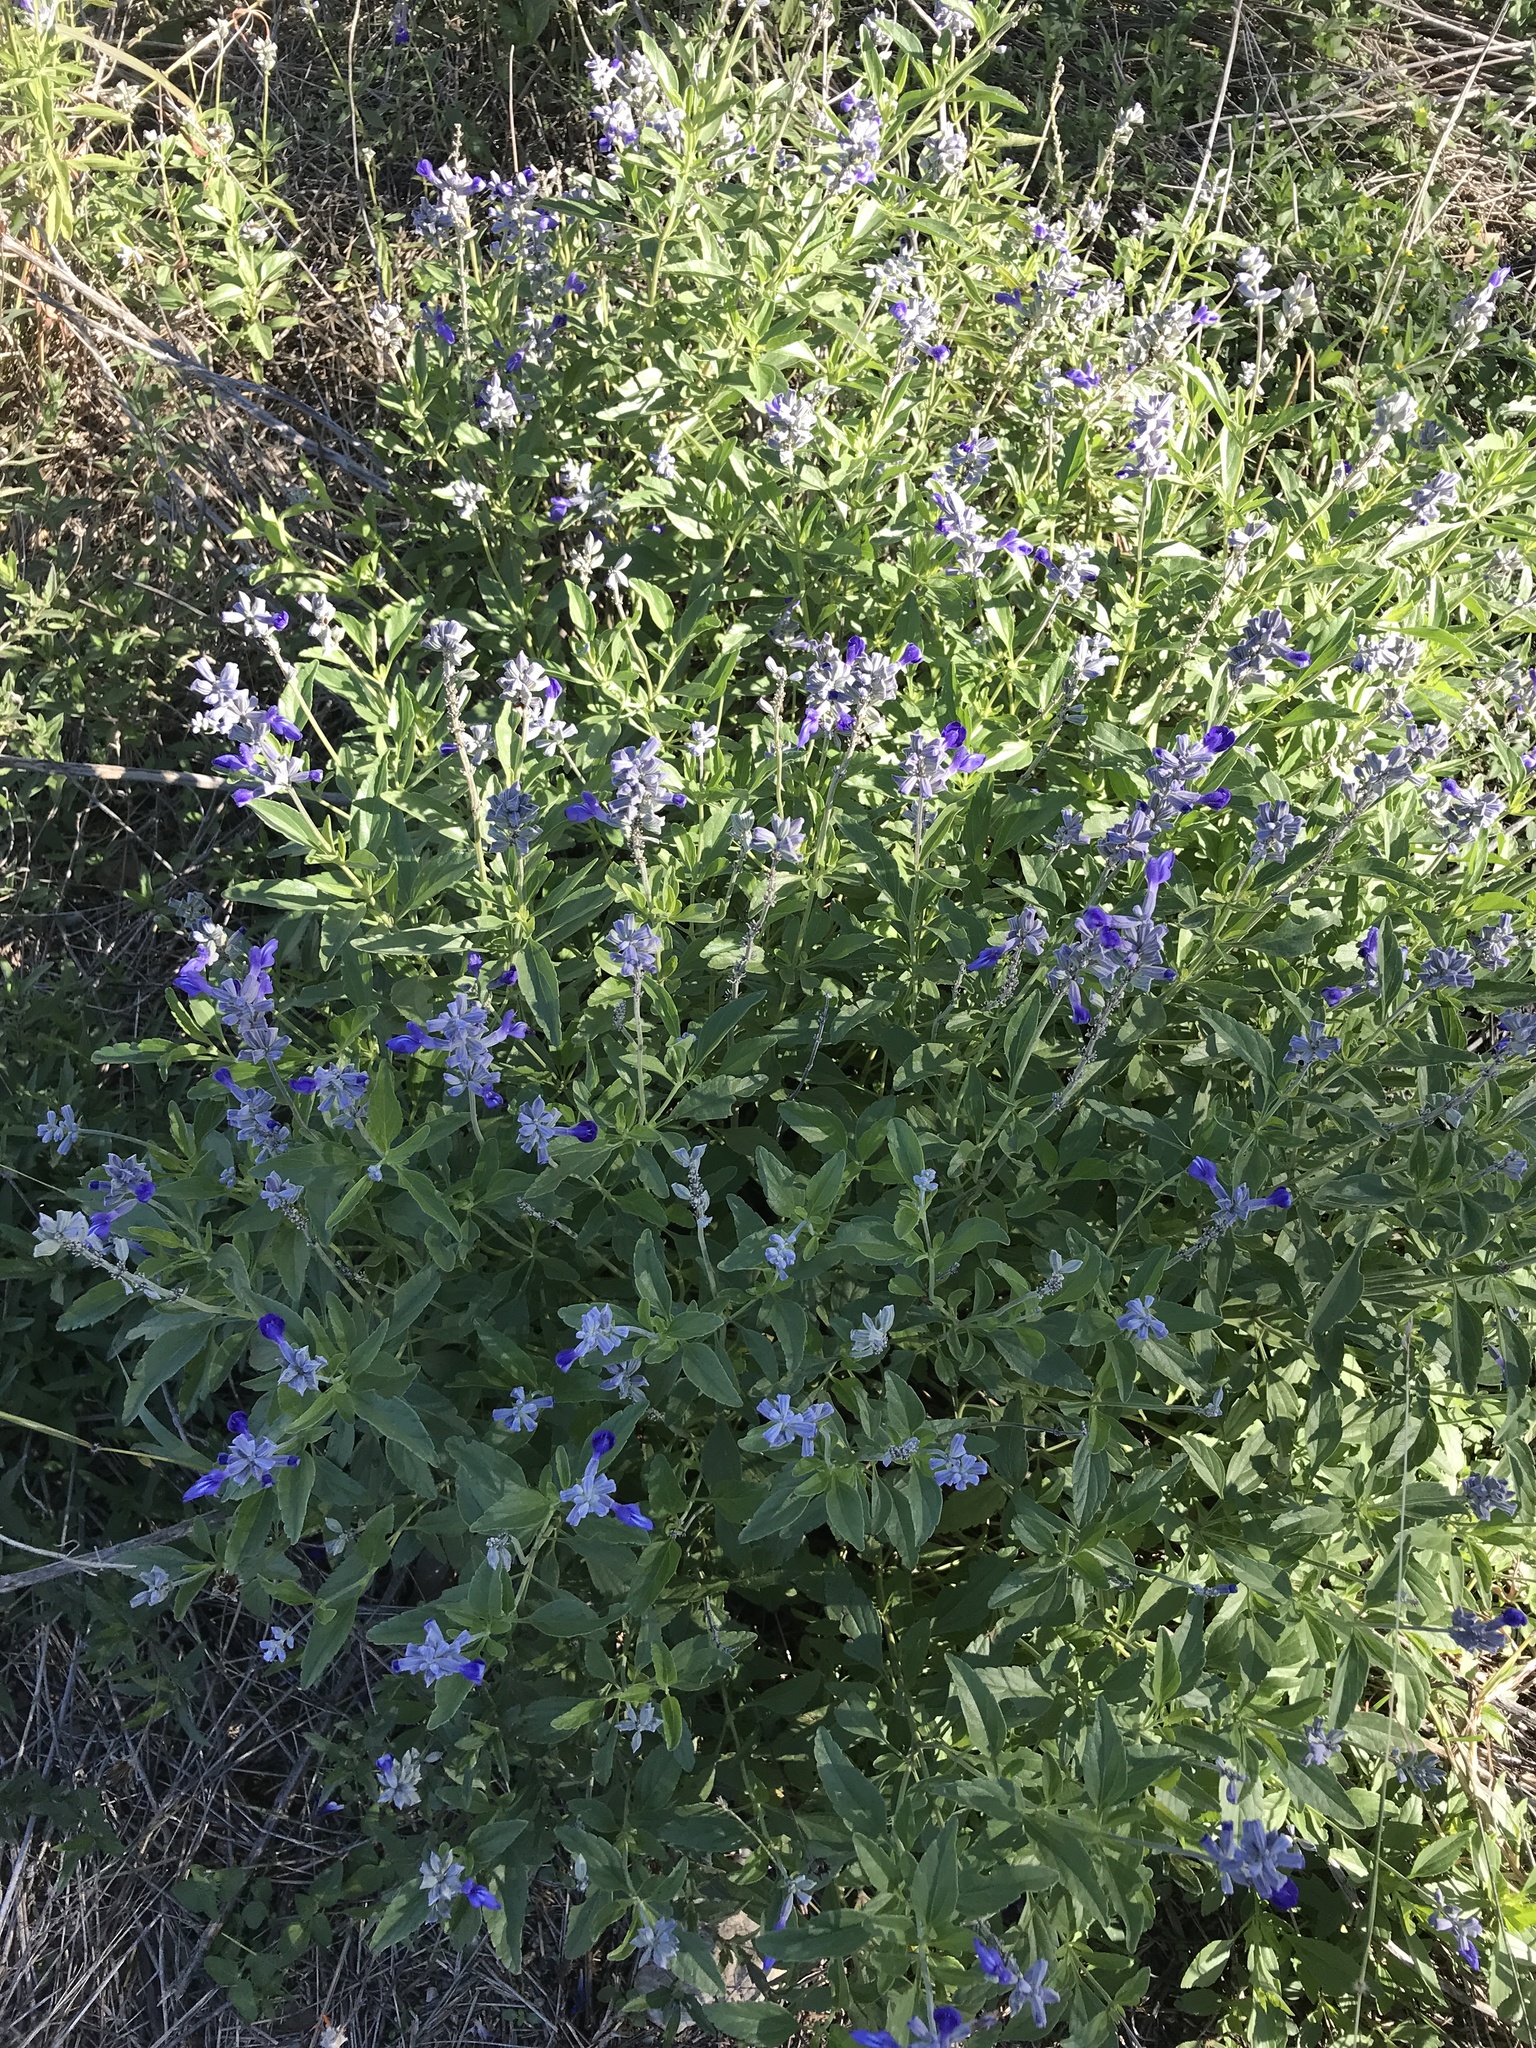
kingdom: Plantae
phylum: Tracheophyta
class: Magnoliopsida
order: Lamiales
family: Lamiaceae
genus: Salvia
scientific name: Salvia farinacea
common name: Mealy sage
